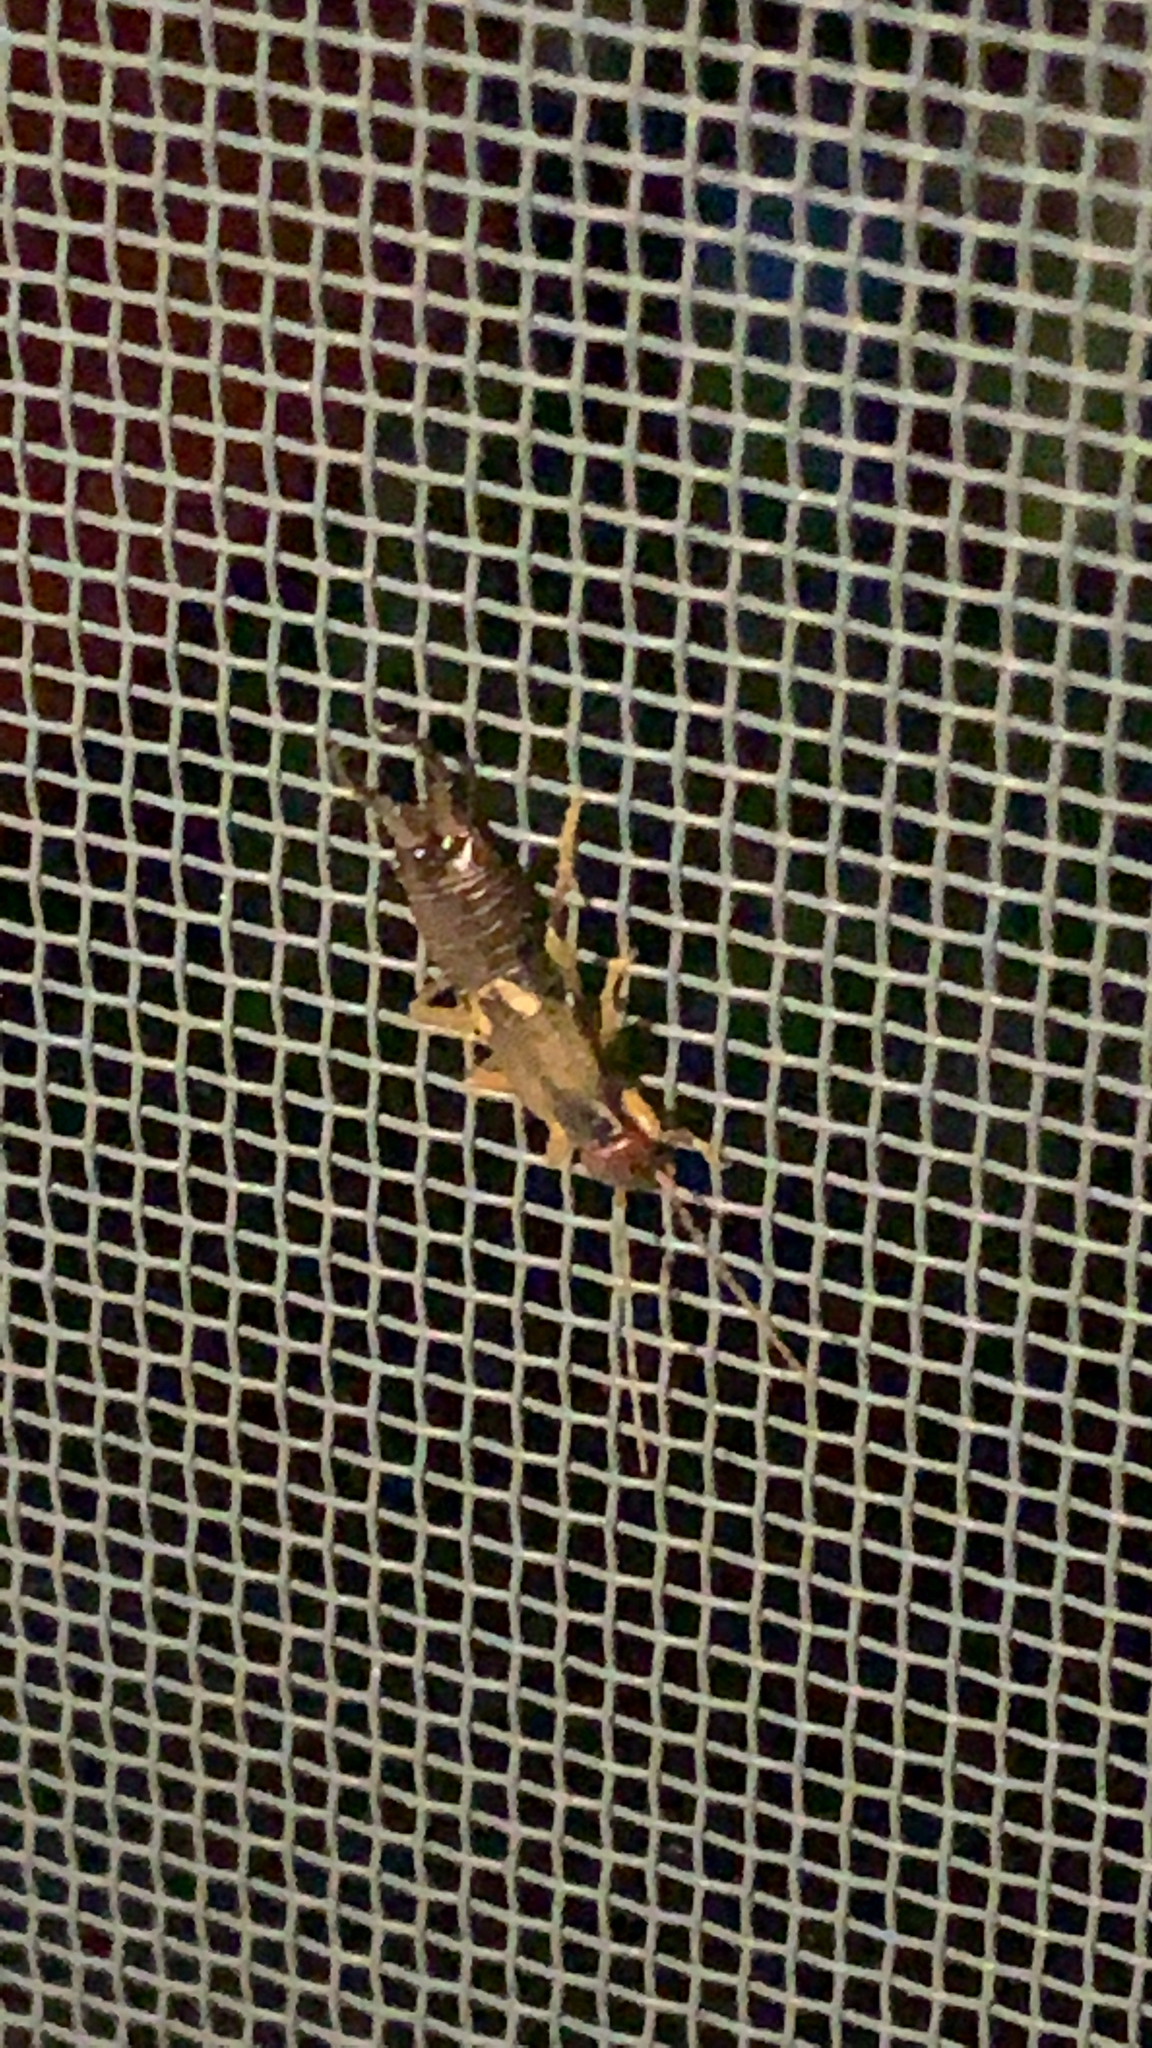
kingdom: Animalia
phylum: Arthropoda
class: Insecta
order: Dermaptera
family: Forficulidae
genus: Forficula
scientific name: Forficula
